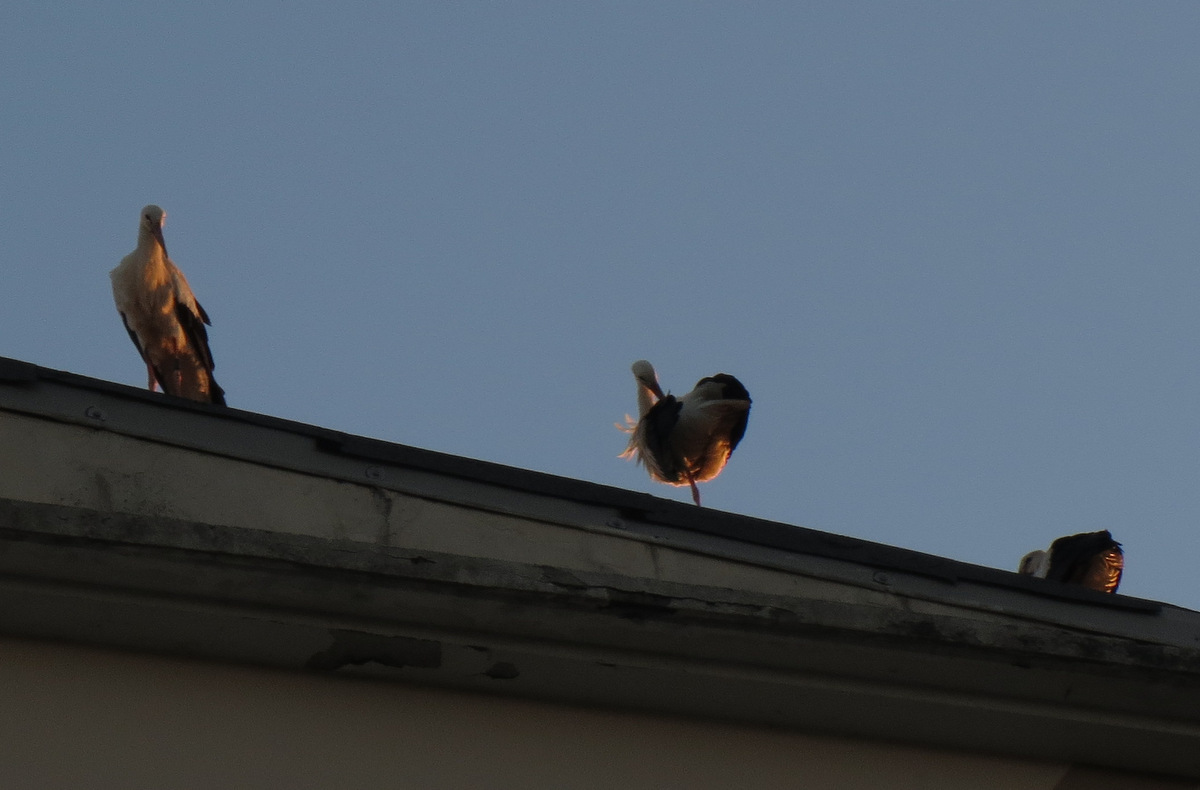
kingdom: Animalia
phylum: Chordata
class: Aves
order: Ciconiiformes
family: Ciconiidae
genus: Ciconia
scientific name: Ciconia ciconia
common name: White stork
